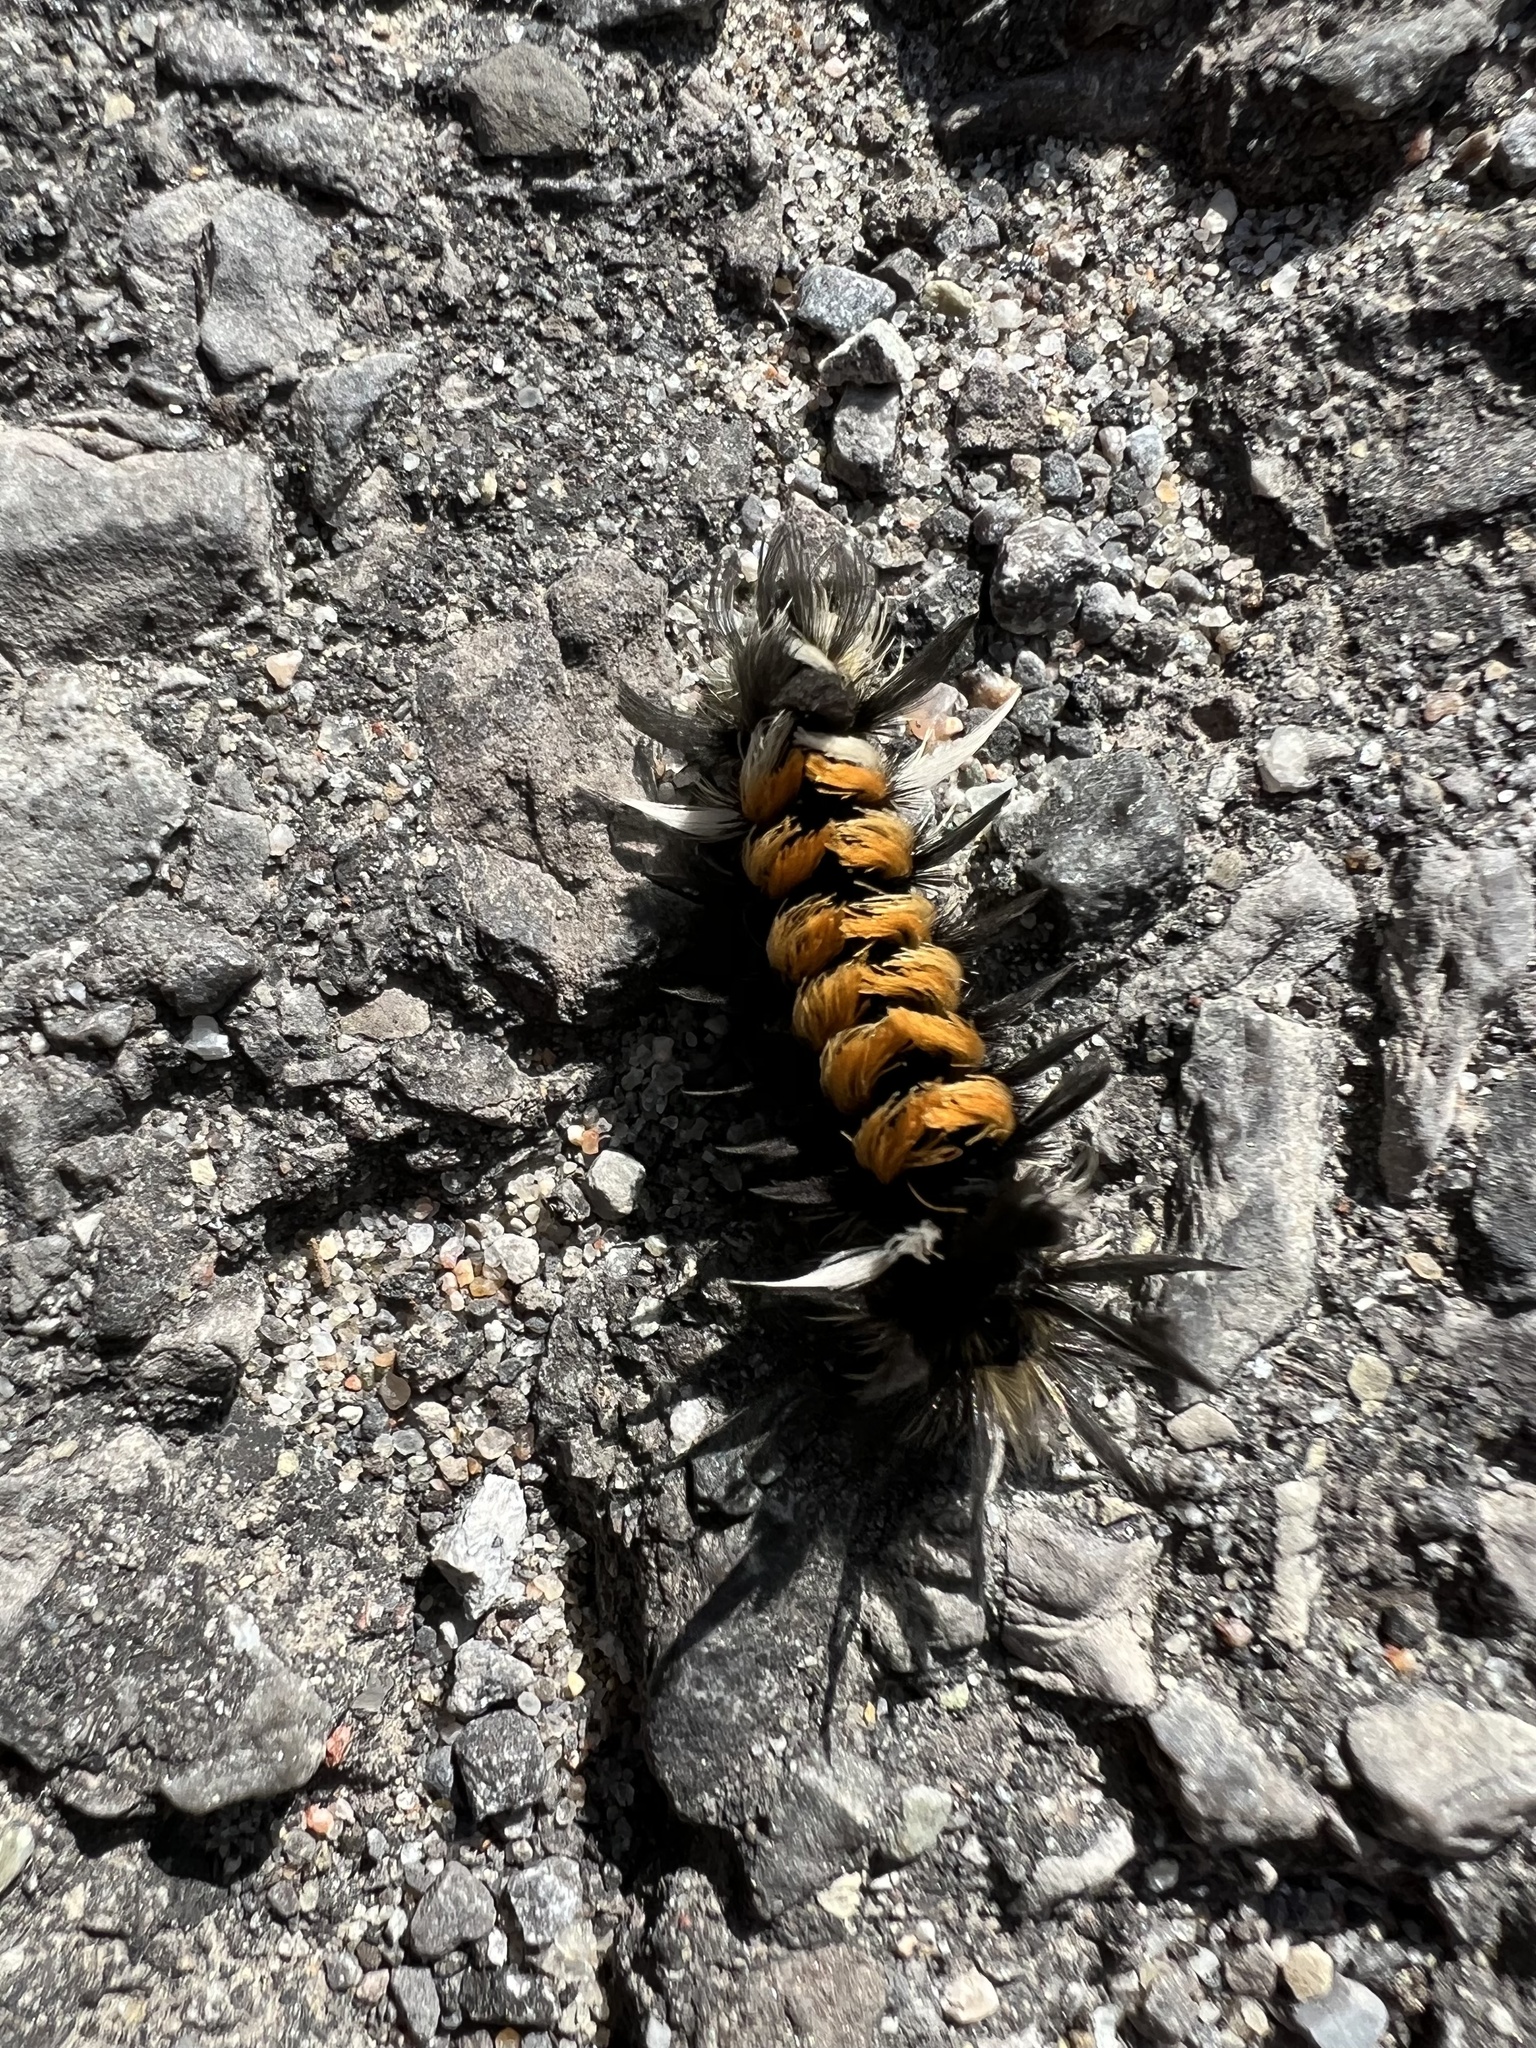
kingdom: Animalia
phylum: Arthropoda
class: Insecta
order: Lepidoptera
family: Erebidae
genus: Euchaetes
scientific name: Euchaetes egle
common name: Milkweed tussock moth
